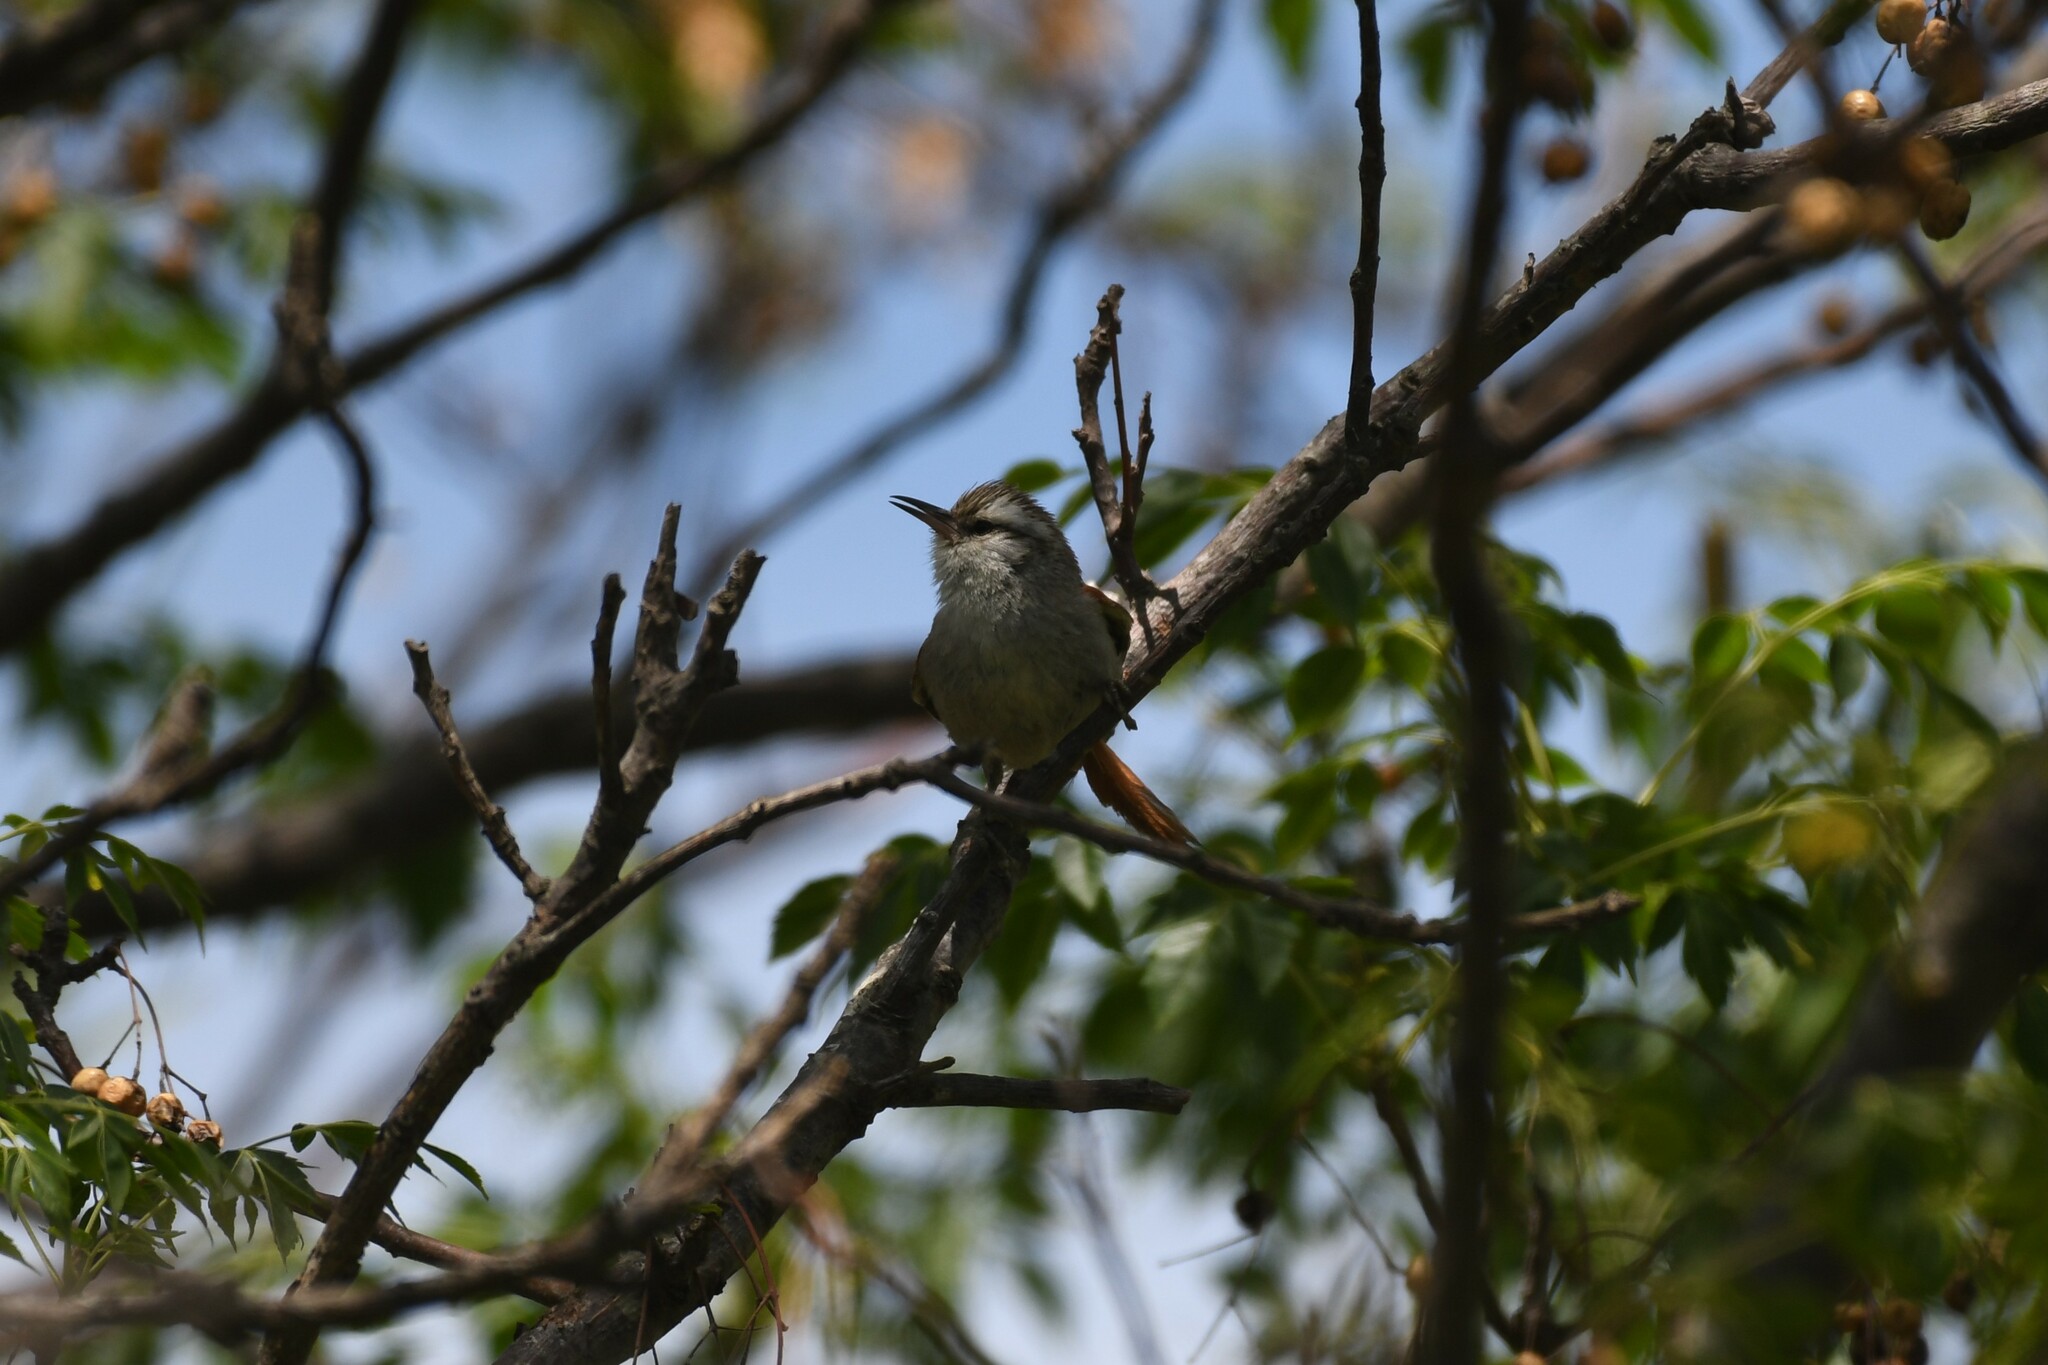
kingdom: Animalia
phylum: Chordata
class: Aves
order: Passeriformes
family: Furnariidae
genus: Cranioleuca
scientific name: Cranioleuca pyrrhophia
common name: Stripe-crowned spinetail
